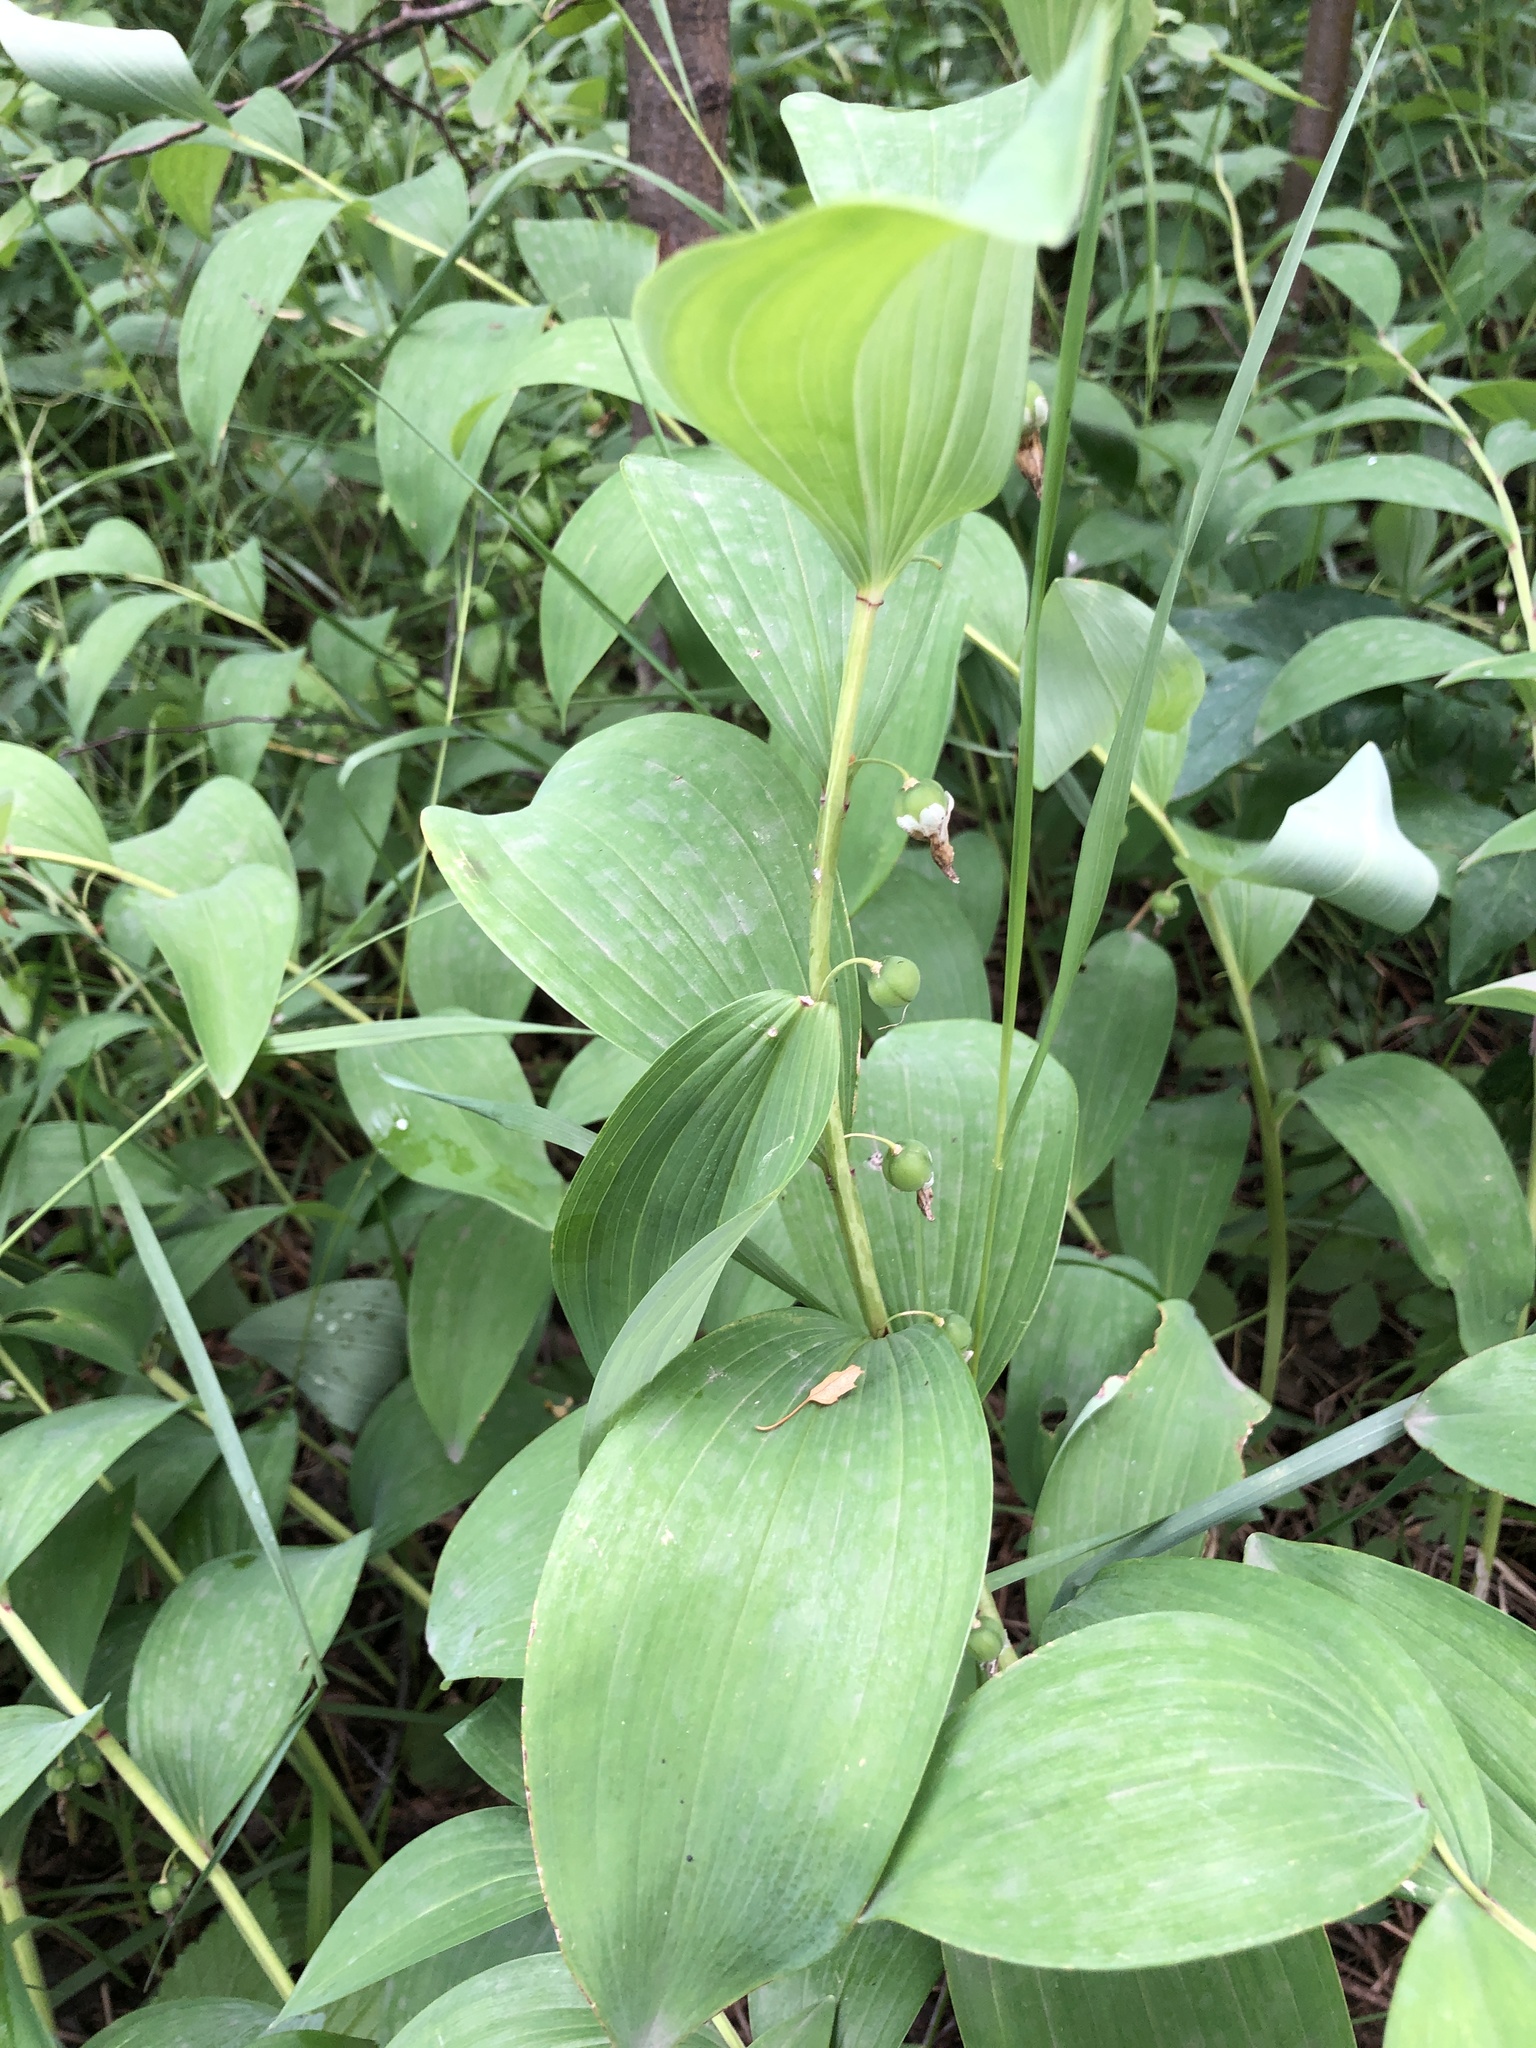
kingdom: Plantae
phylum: Tracheophyta
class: Liliopsida
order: Asparagales
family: Asparagaceae
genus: Polygonatum
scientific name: Polygonatum odoratum
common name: Angular solomon's-seal
